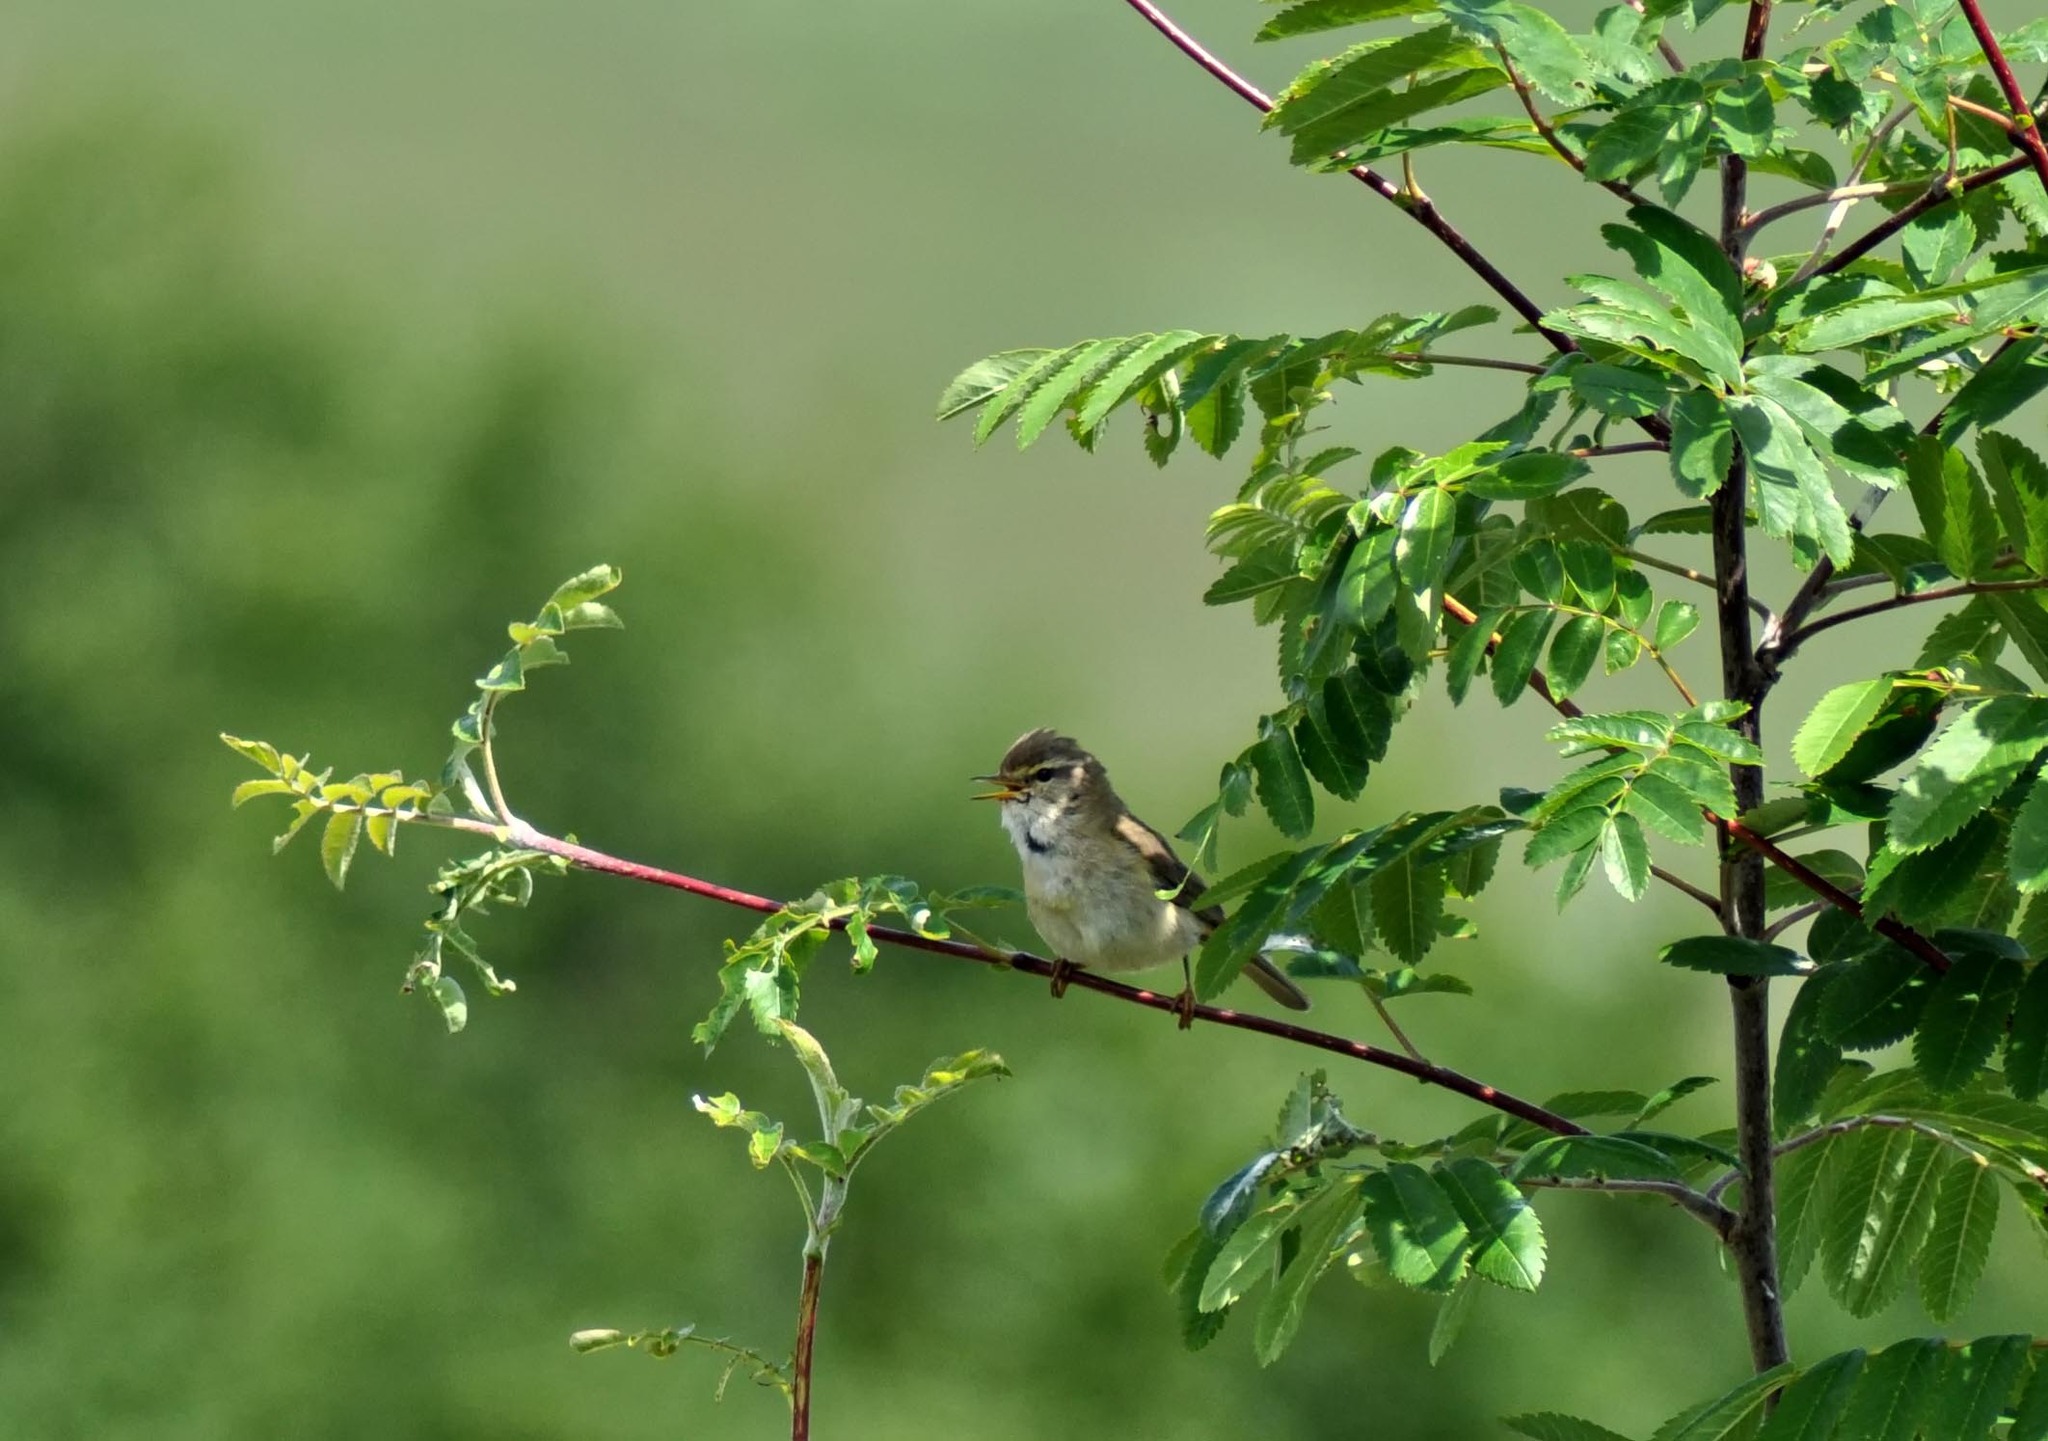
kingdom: Animalia
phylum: Chordata
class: Aves
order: Passeriformes
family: Phylloscopidae
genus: Phylloscopus
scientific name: Phylloscopus trochilus
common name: Willow warbler
